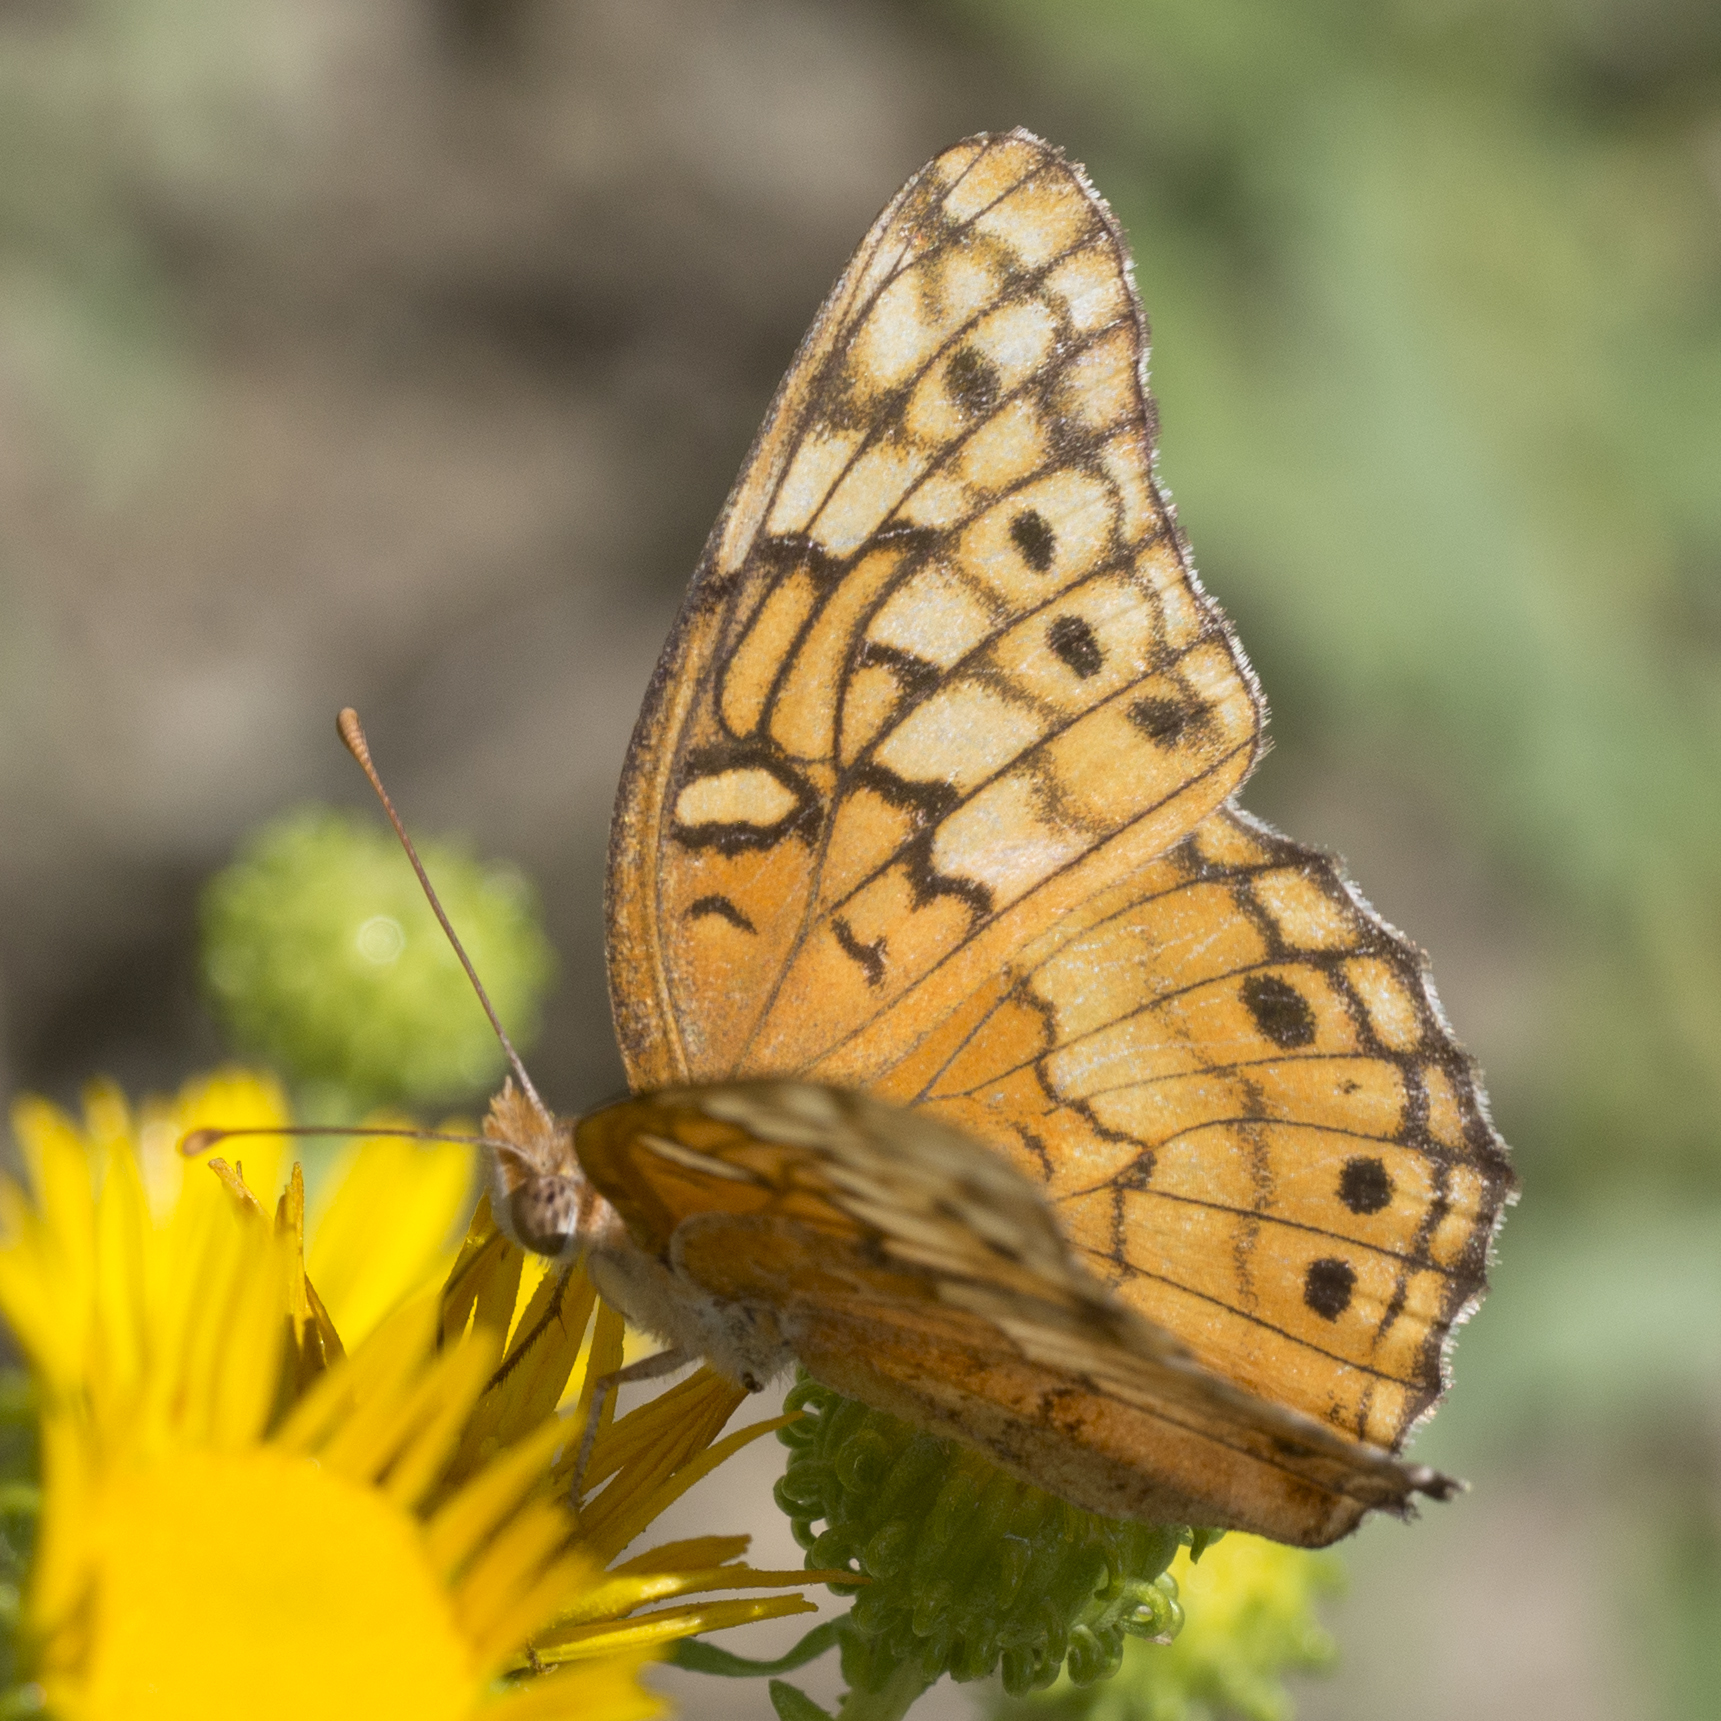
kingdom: Animalia
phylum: Arthropoda
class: Insecta
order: Lepidoptera
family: Nymphalidae
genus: Euptoieta
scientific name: Euptoieta claudia
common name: Variegated fritillary
